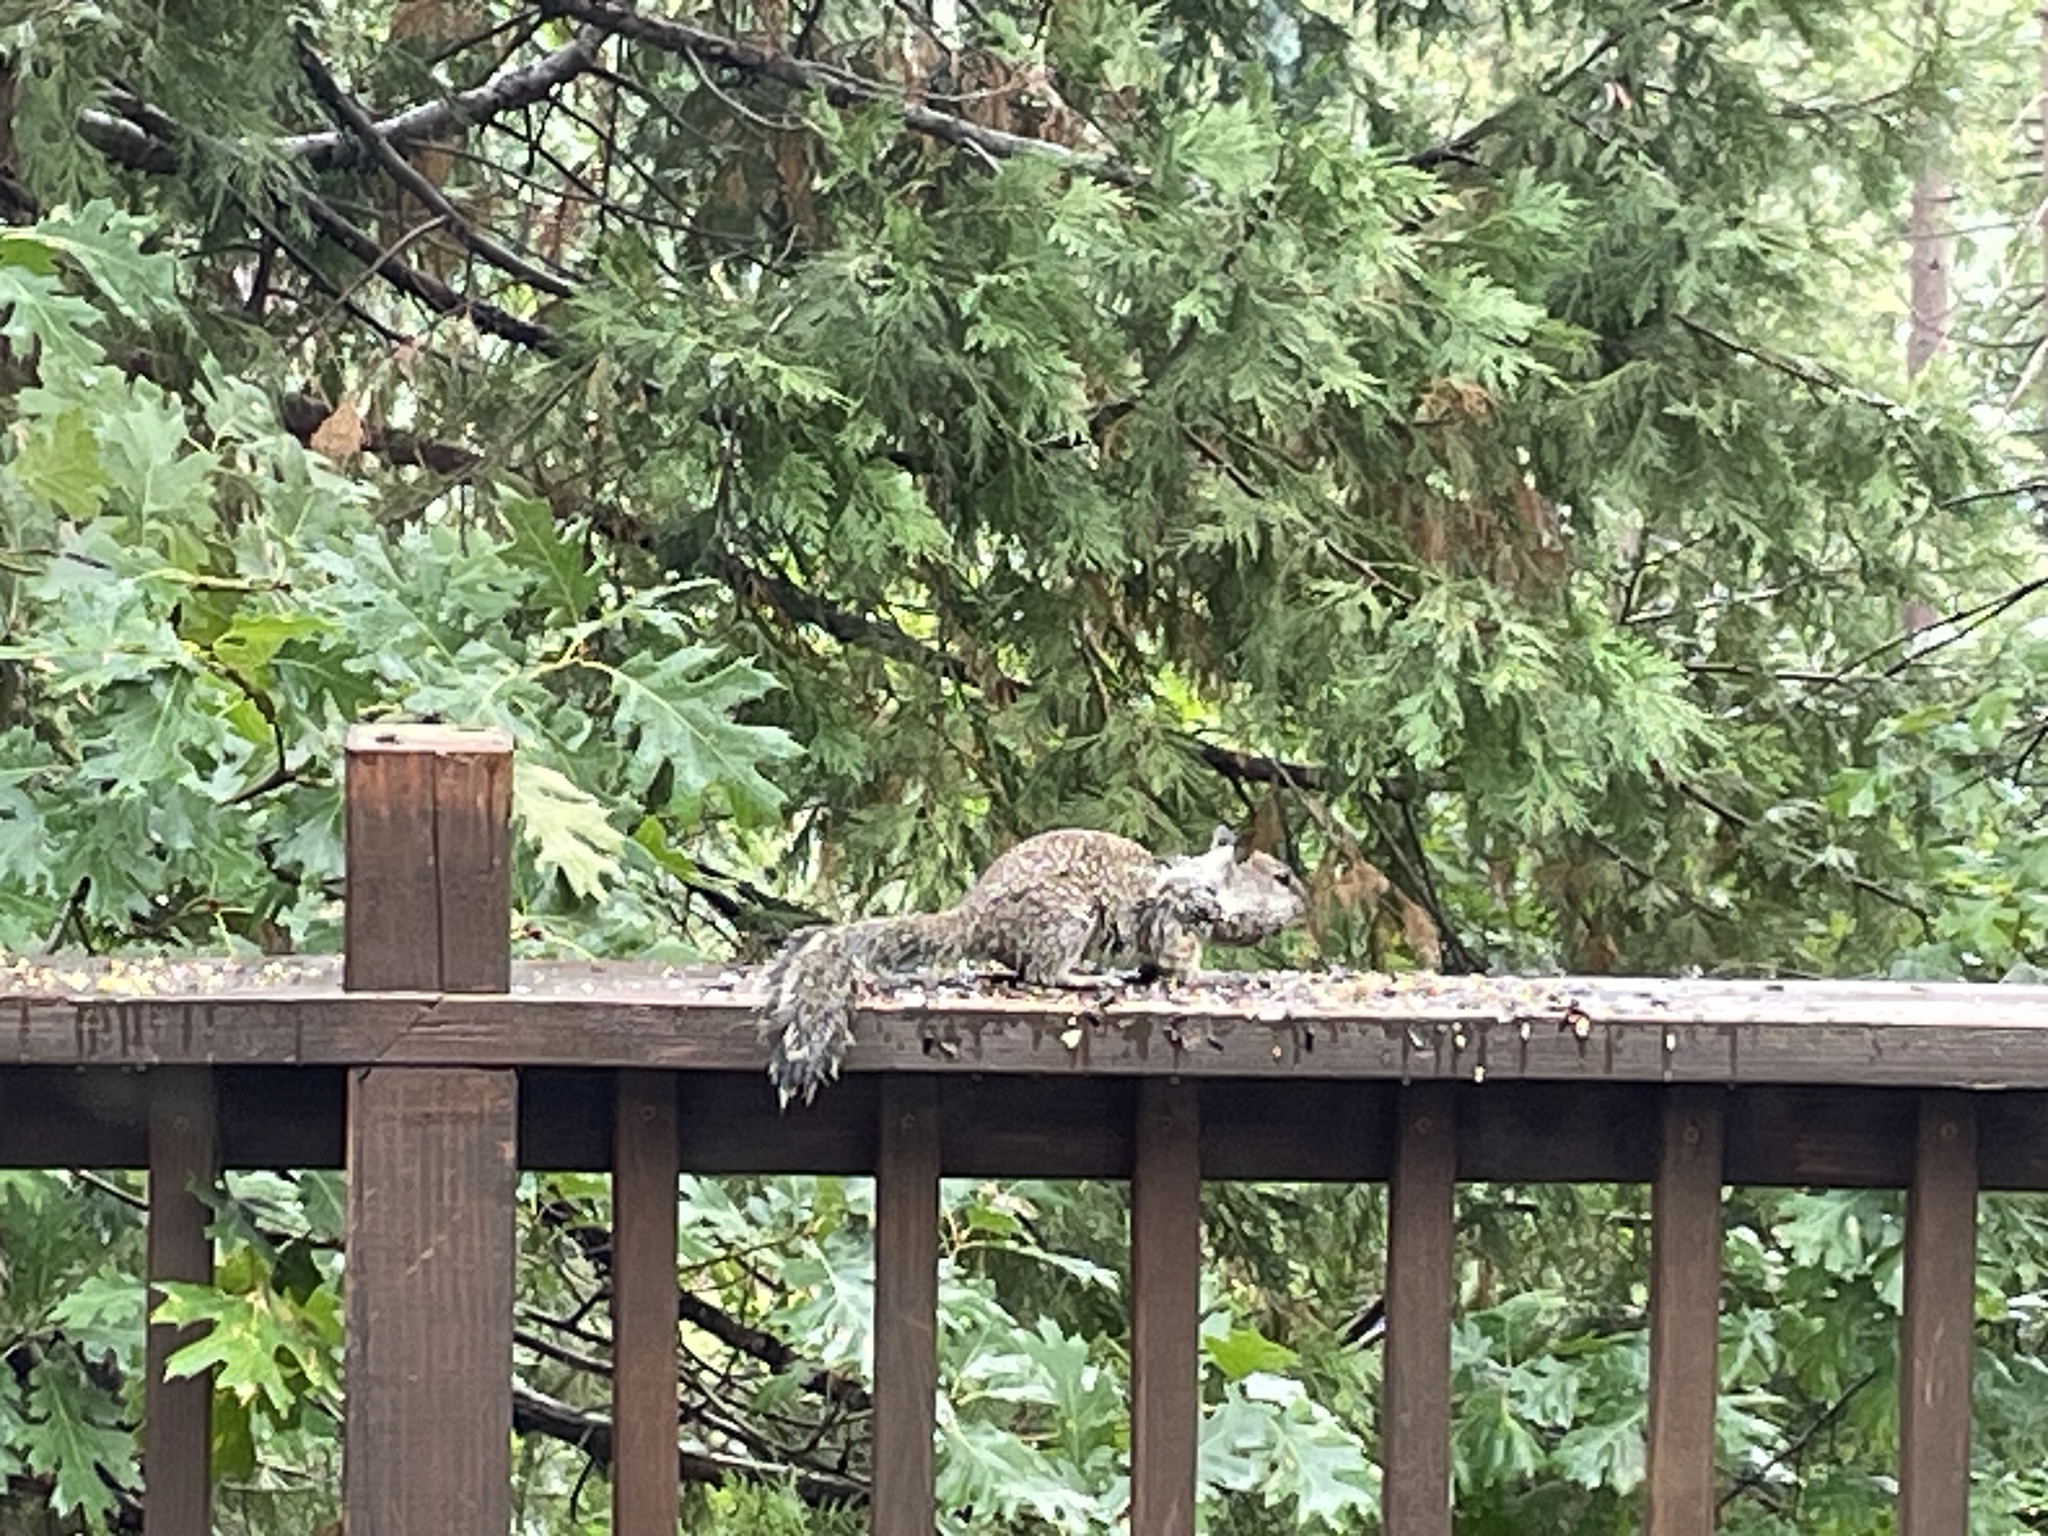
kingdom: Animalia
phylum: Chordata
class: Mammalia
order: Rodentia
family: Sciuridae
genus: Otospermophilus
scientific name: Otospermophilus beecheyi
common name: California ground squirrel
